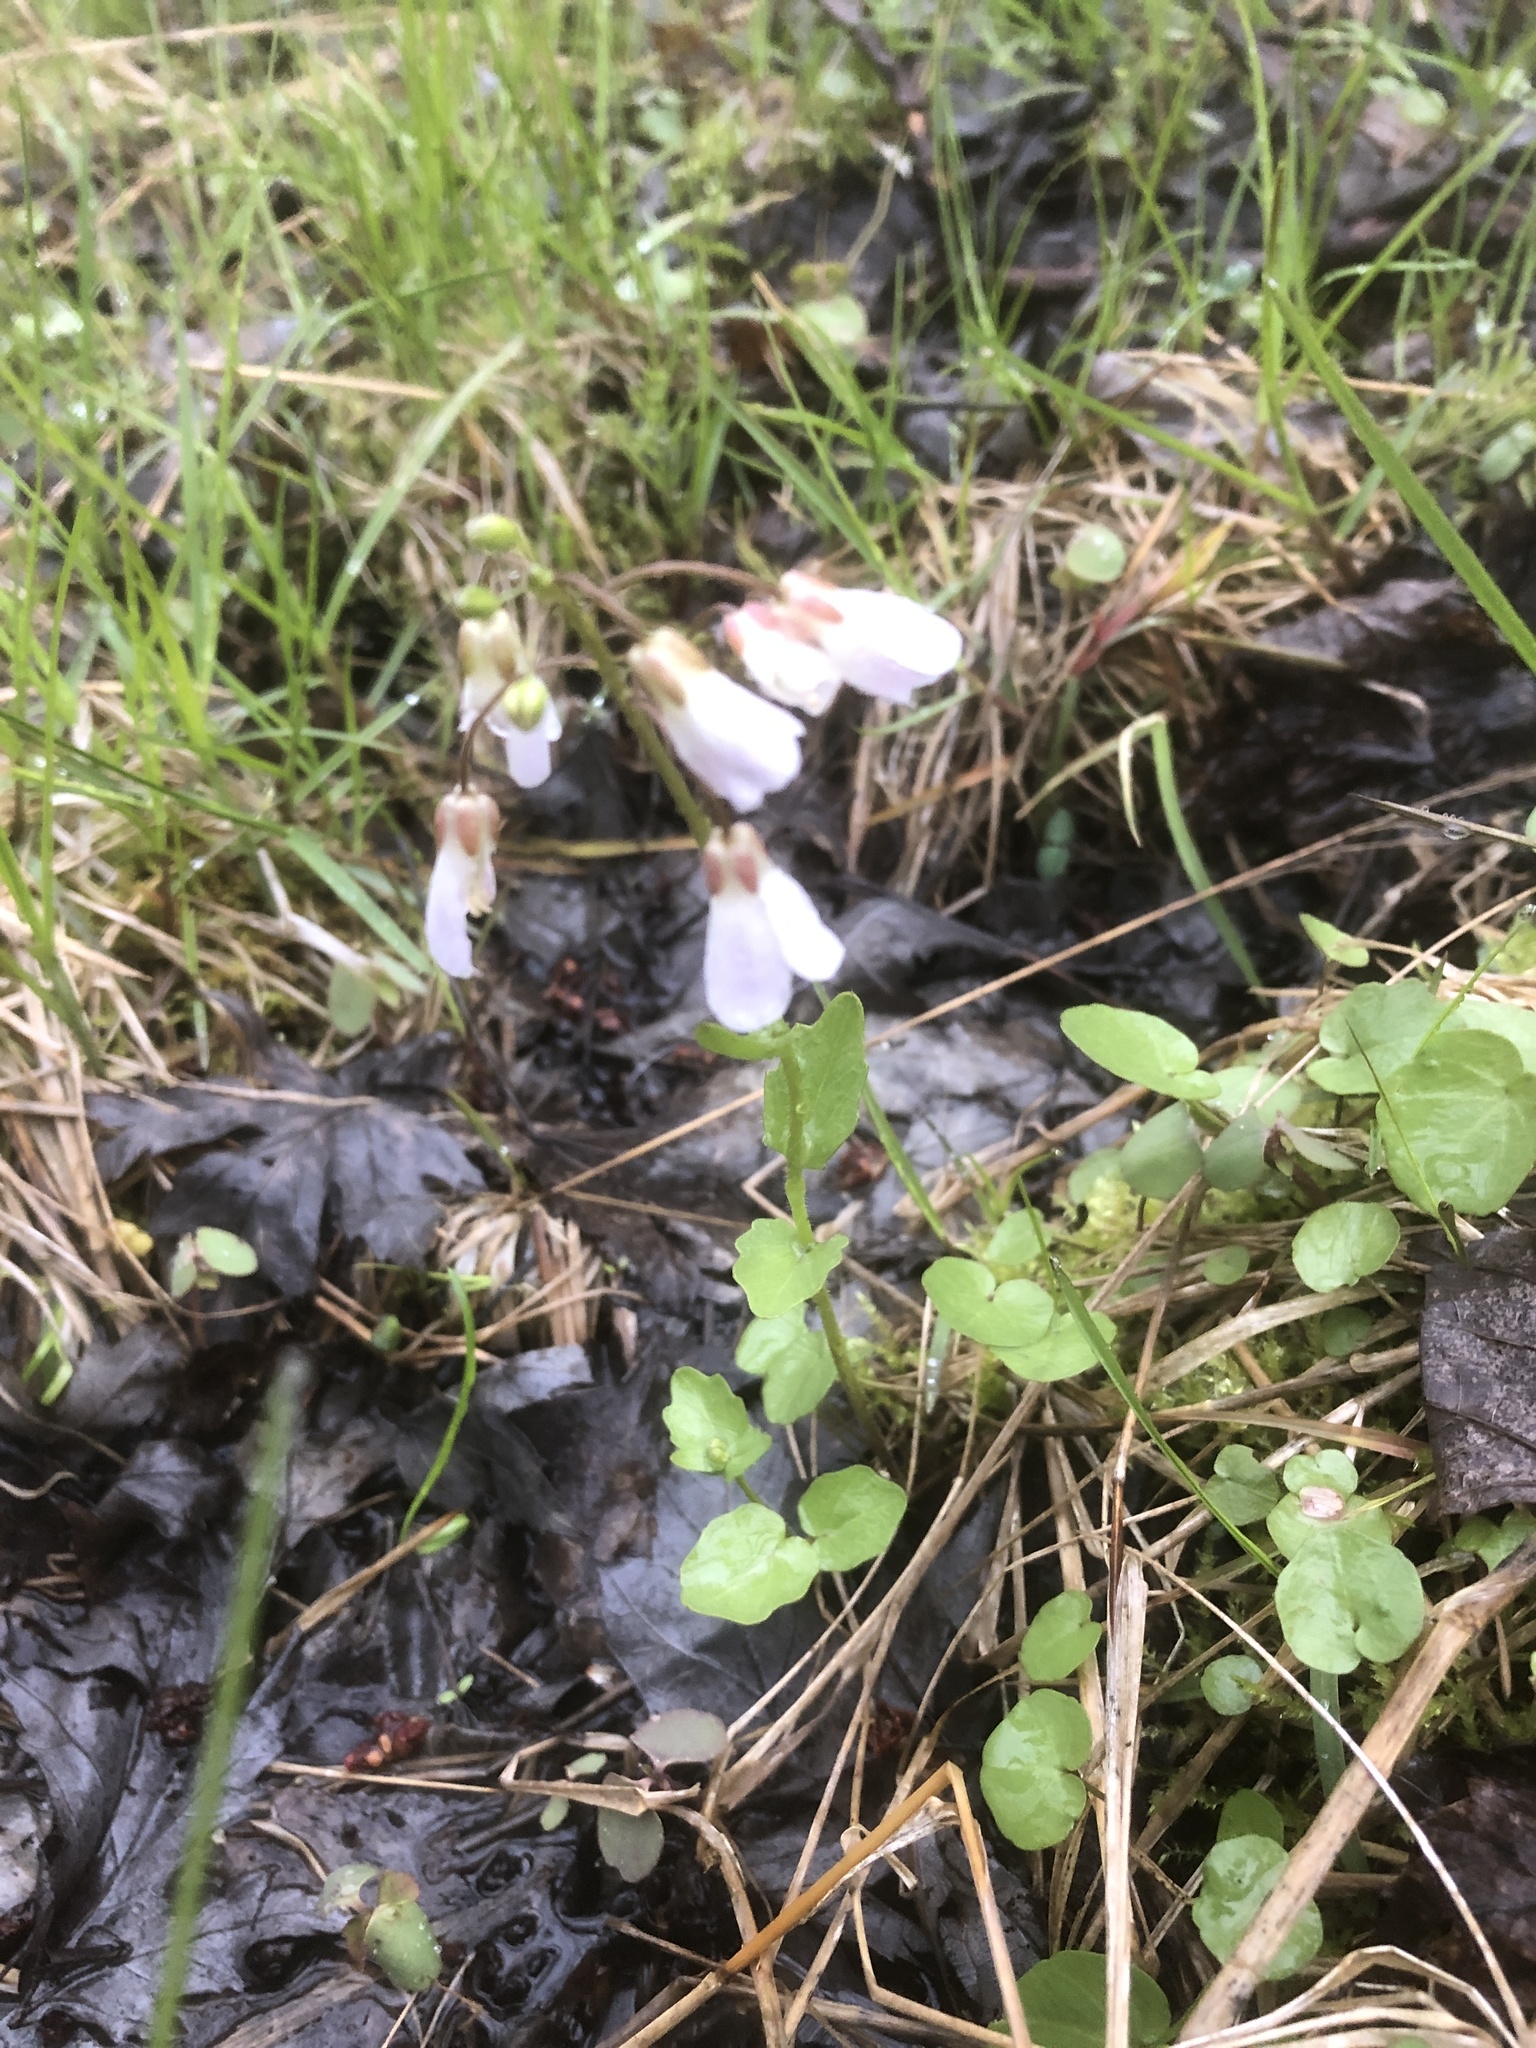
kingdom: Plantae
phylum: Tracheophyta
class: Magnoliopsida
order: Brassicales
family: Brassicaceae
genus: Cardamine
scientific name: Cardamine douglassii
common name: Purple cress
